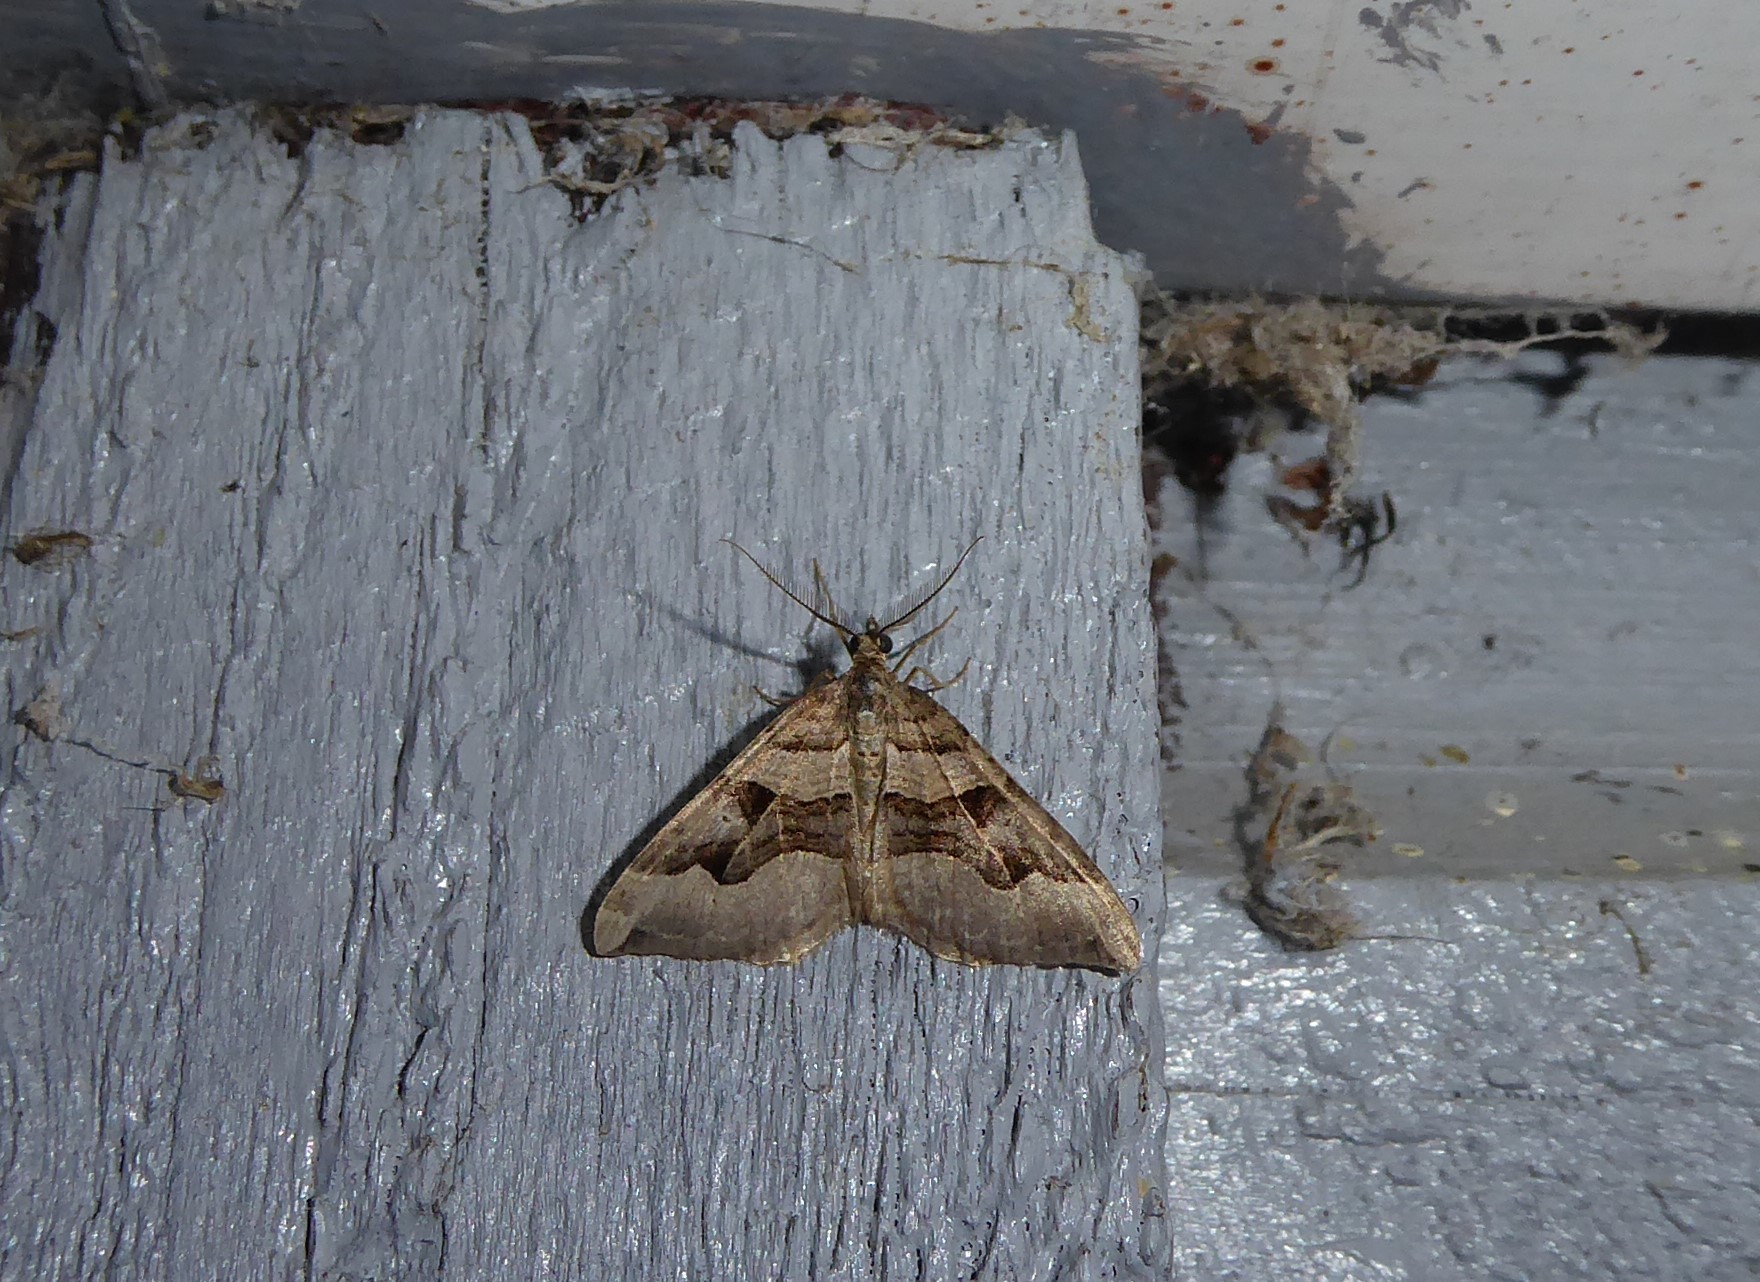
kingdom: Animalia
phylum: Arthropoda
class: Insecta
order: Lepidoptera
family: Geometridae
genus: Xanthorhoe
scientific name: Xanthorhoe semifissata
